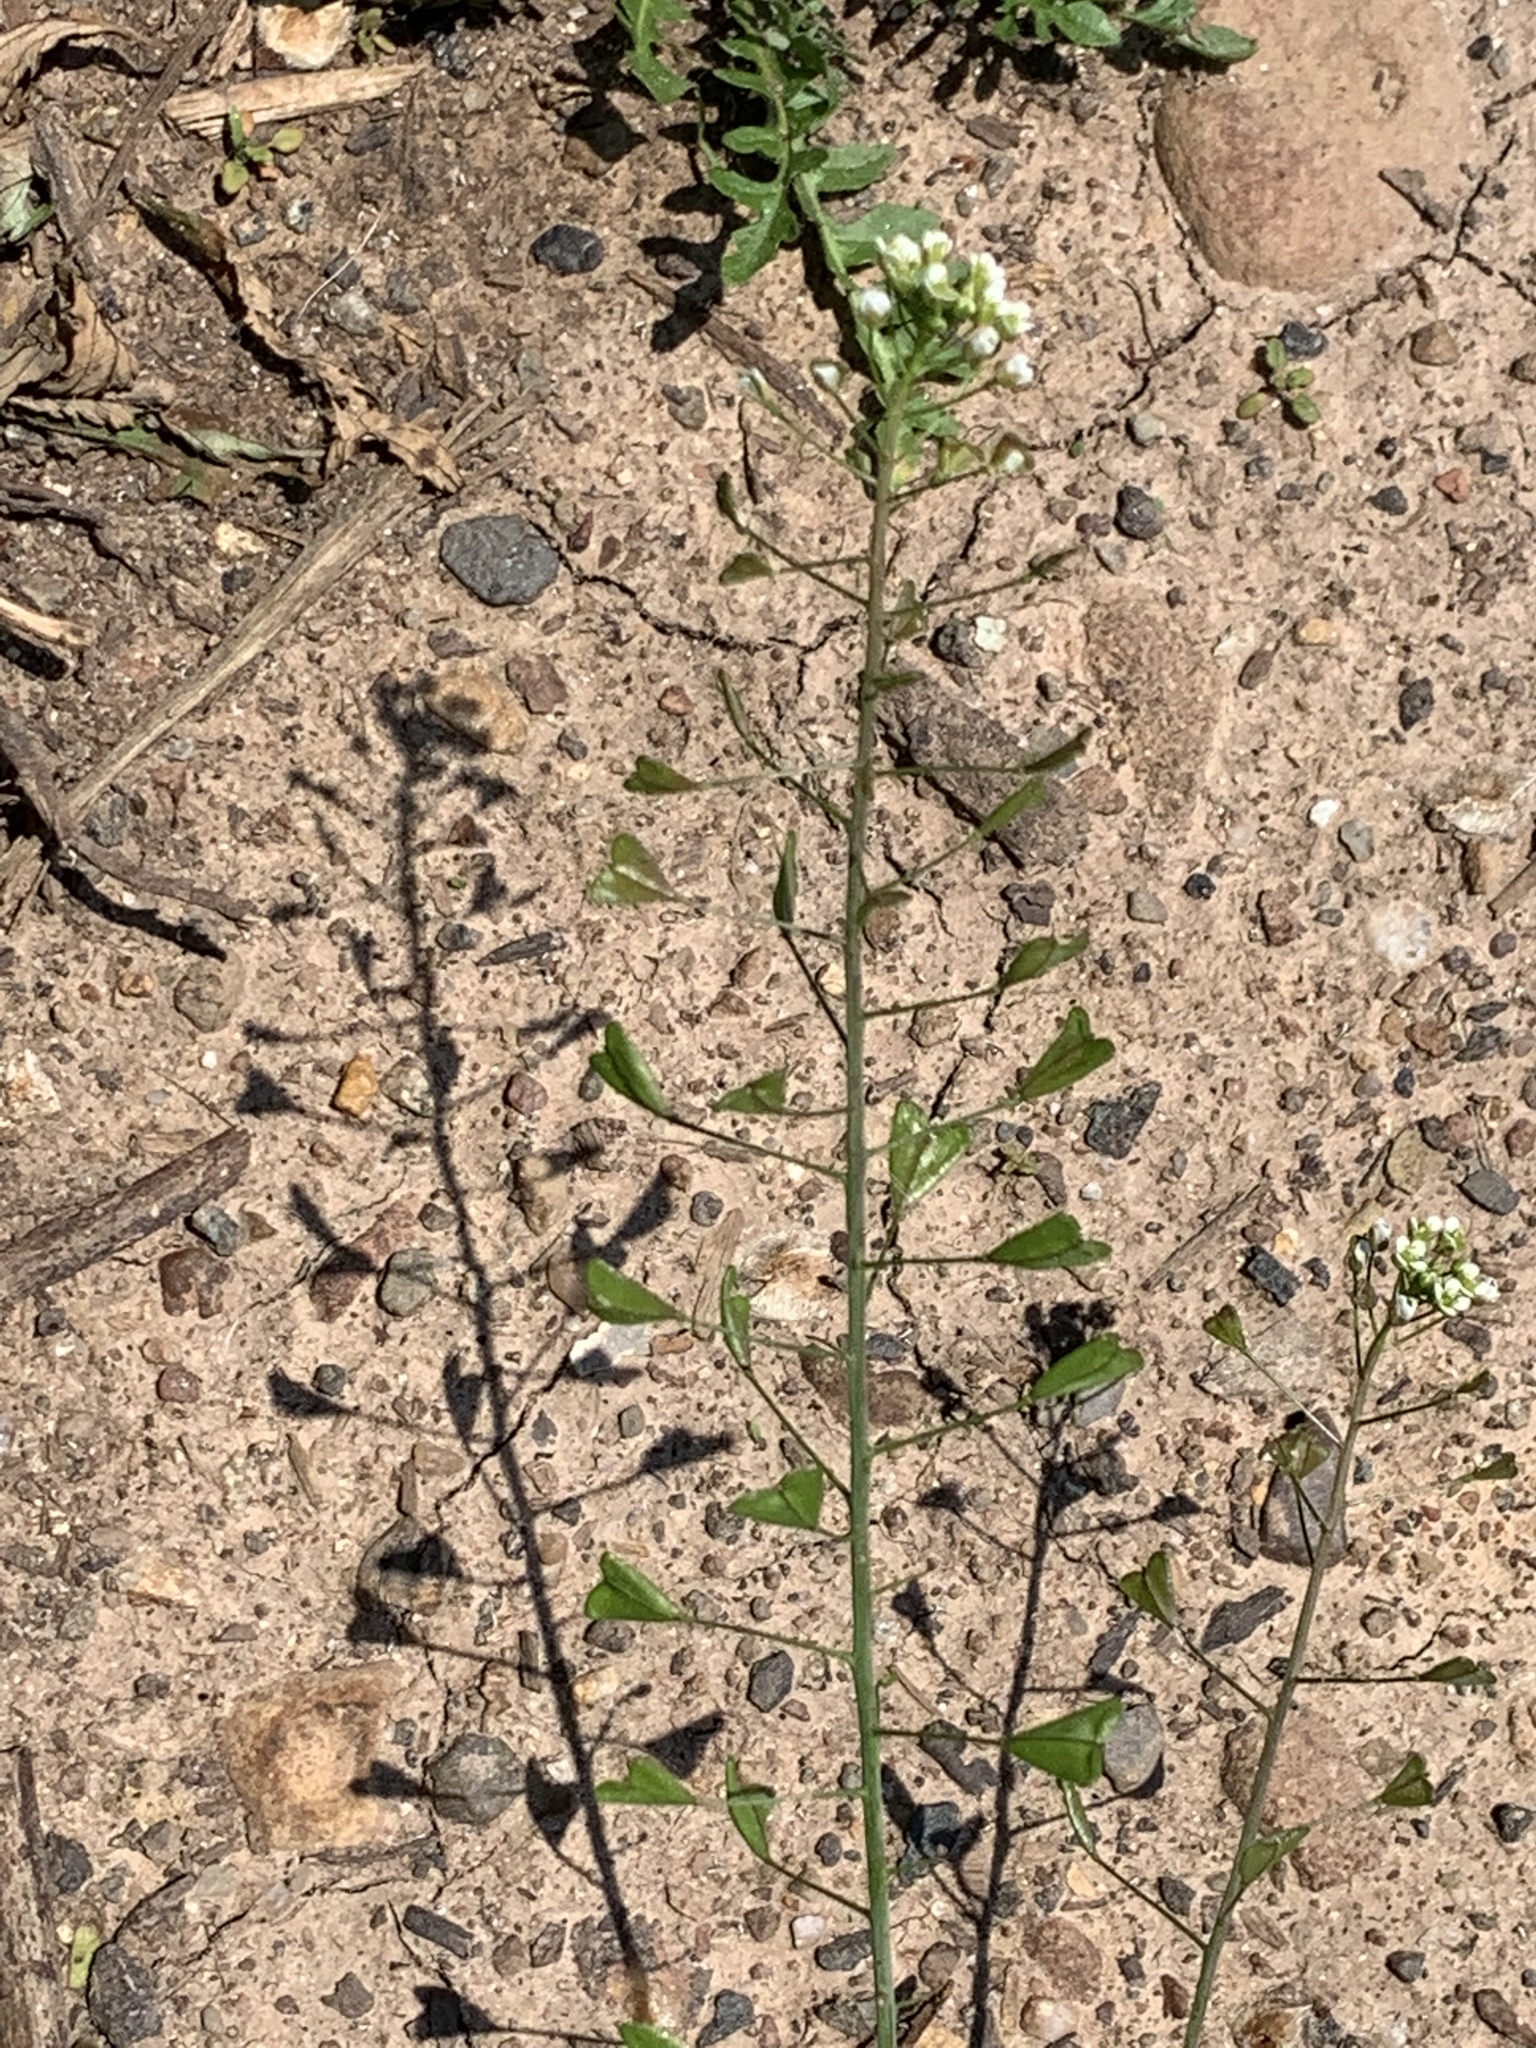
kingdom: Plantae
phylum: Tracheophyta
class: Magnoliopsida
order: Brassicales
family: Brassicaceae
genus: Capsella
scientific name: Capsella bursa-pastoris
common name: Shepherd's purse
